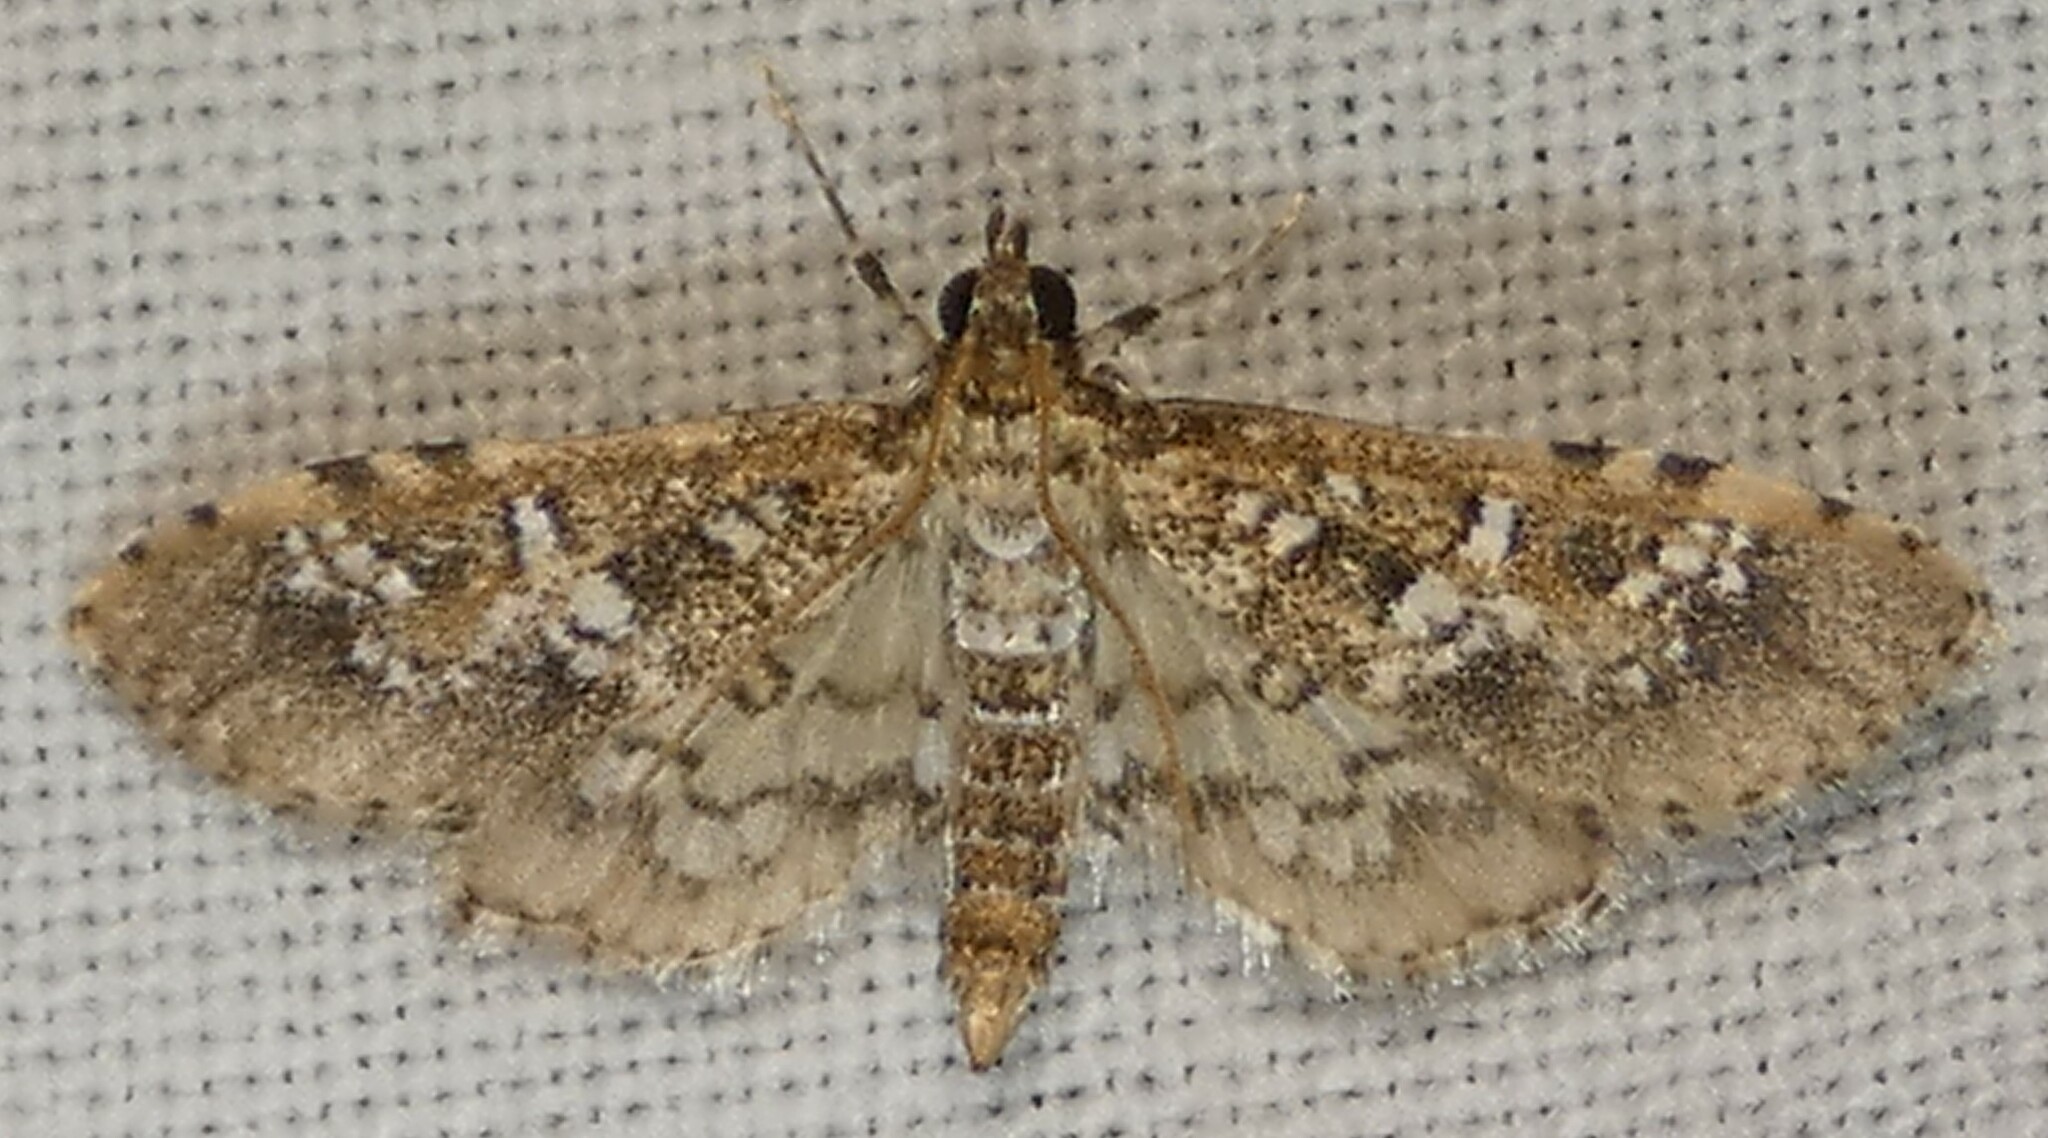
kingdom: Animalia
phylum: Arthropoda
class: Insecta
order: Lepidoptera
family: Crambidae
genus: Samea
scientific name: Samea multiplicalis
